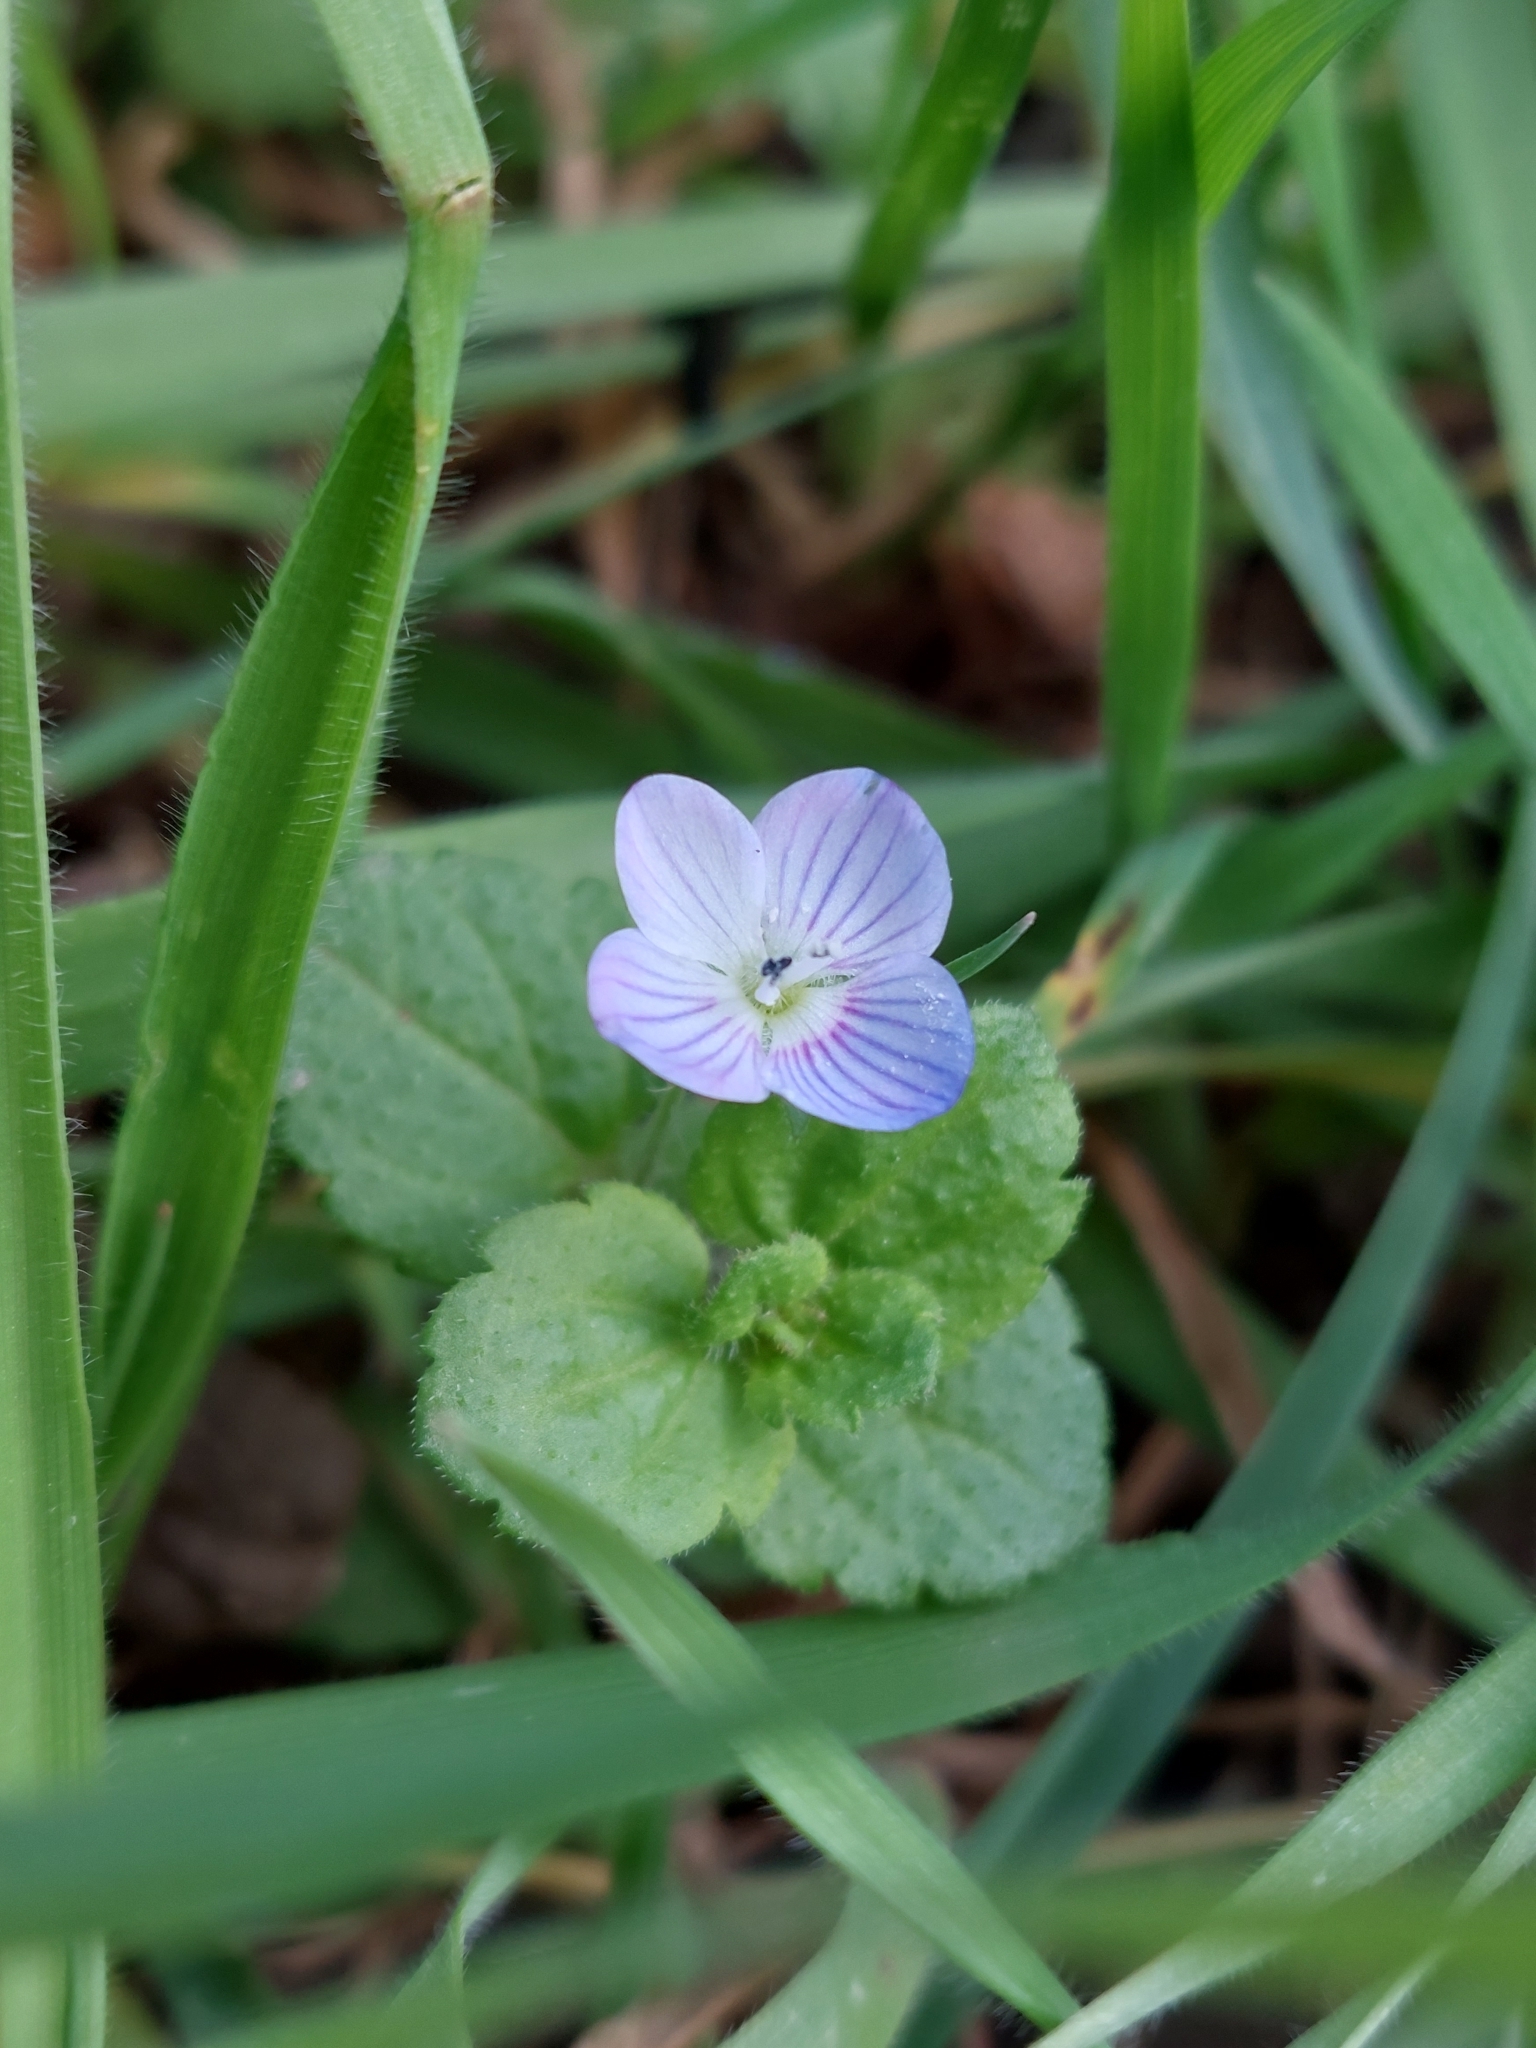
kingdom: Plantae
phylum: Tracheophyta
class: Magnoliopsida
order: Lamiales
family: Plantaginaceae
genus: Veronica
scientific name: Veronica persica
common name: Common field-speedwell
